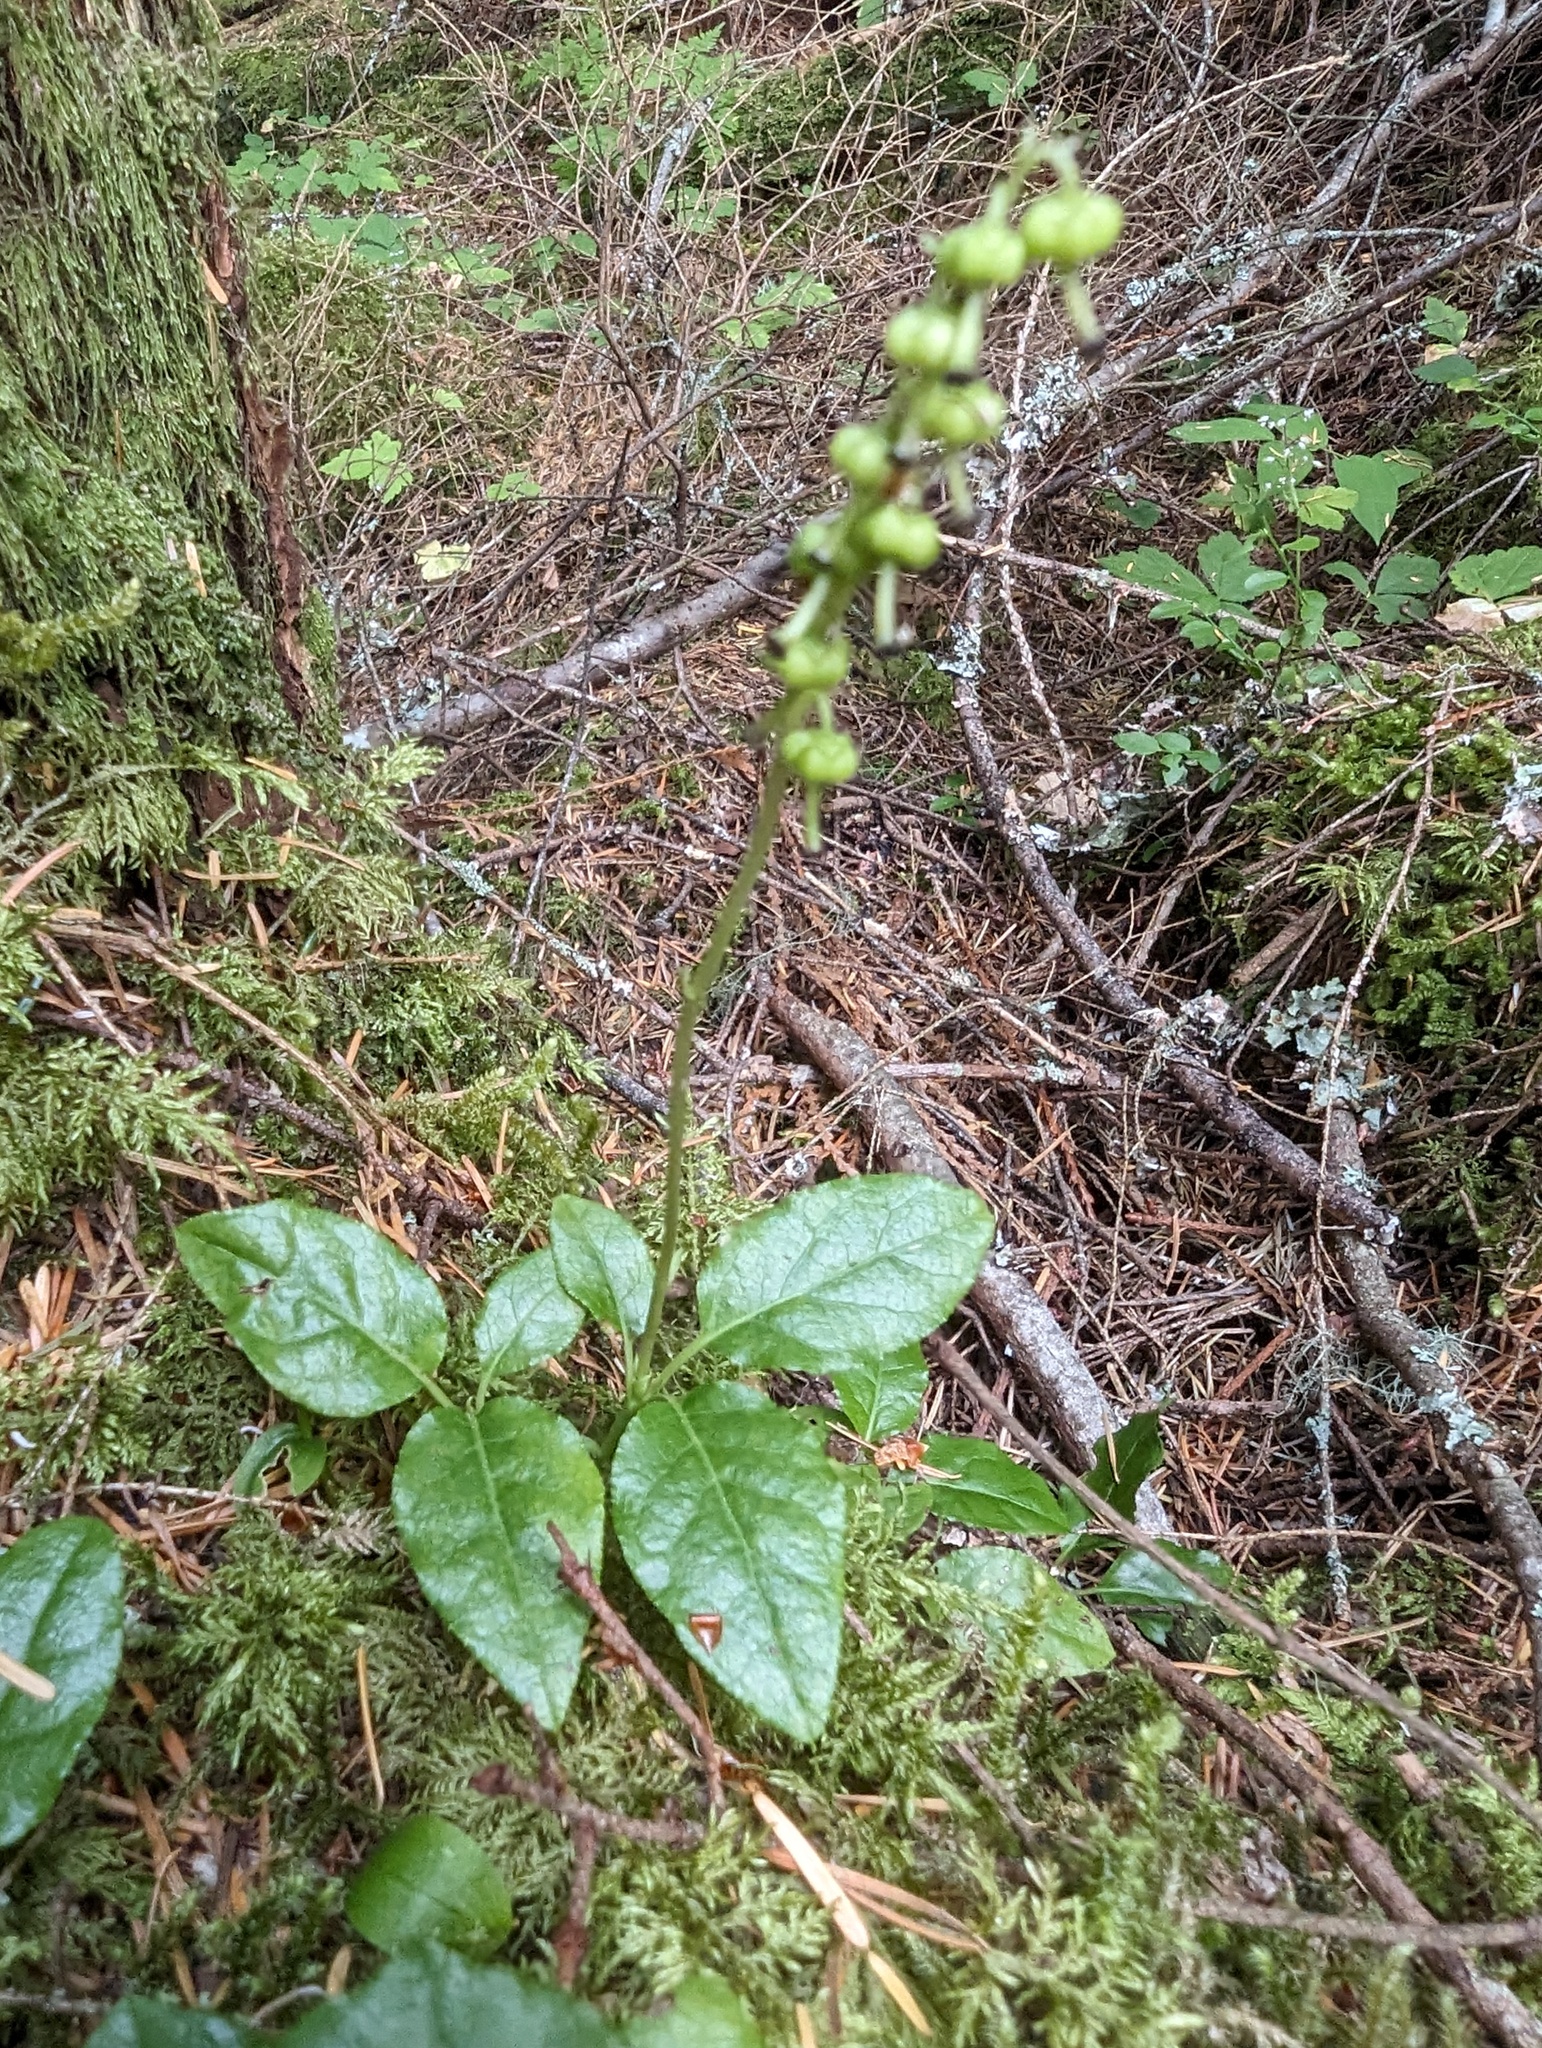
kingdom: Plantae
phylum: Tracheophyta
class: Magnoliopsida
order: Ericales
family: Ericaceae
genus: Orthilia
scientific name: Orthilia secunda
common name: One-sided orthilia
